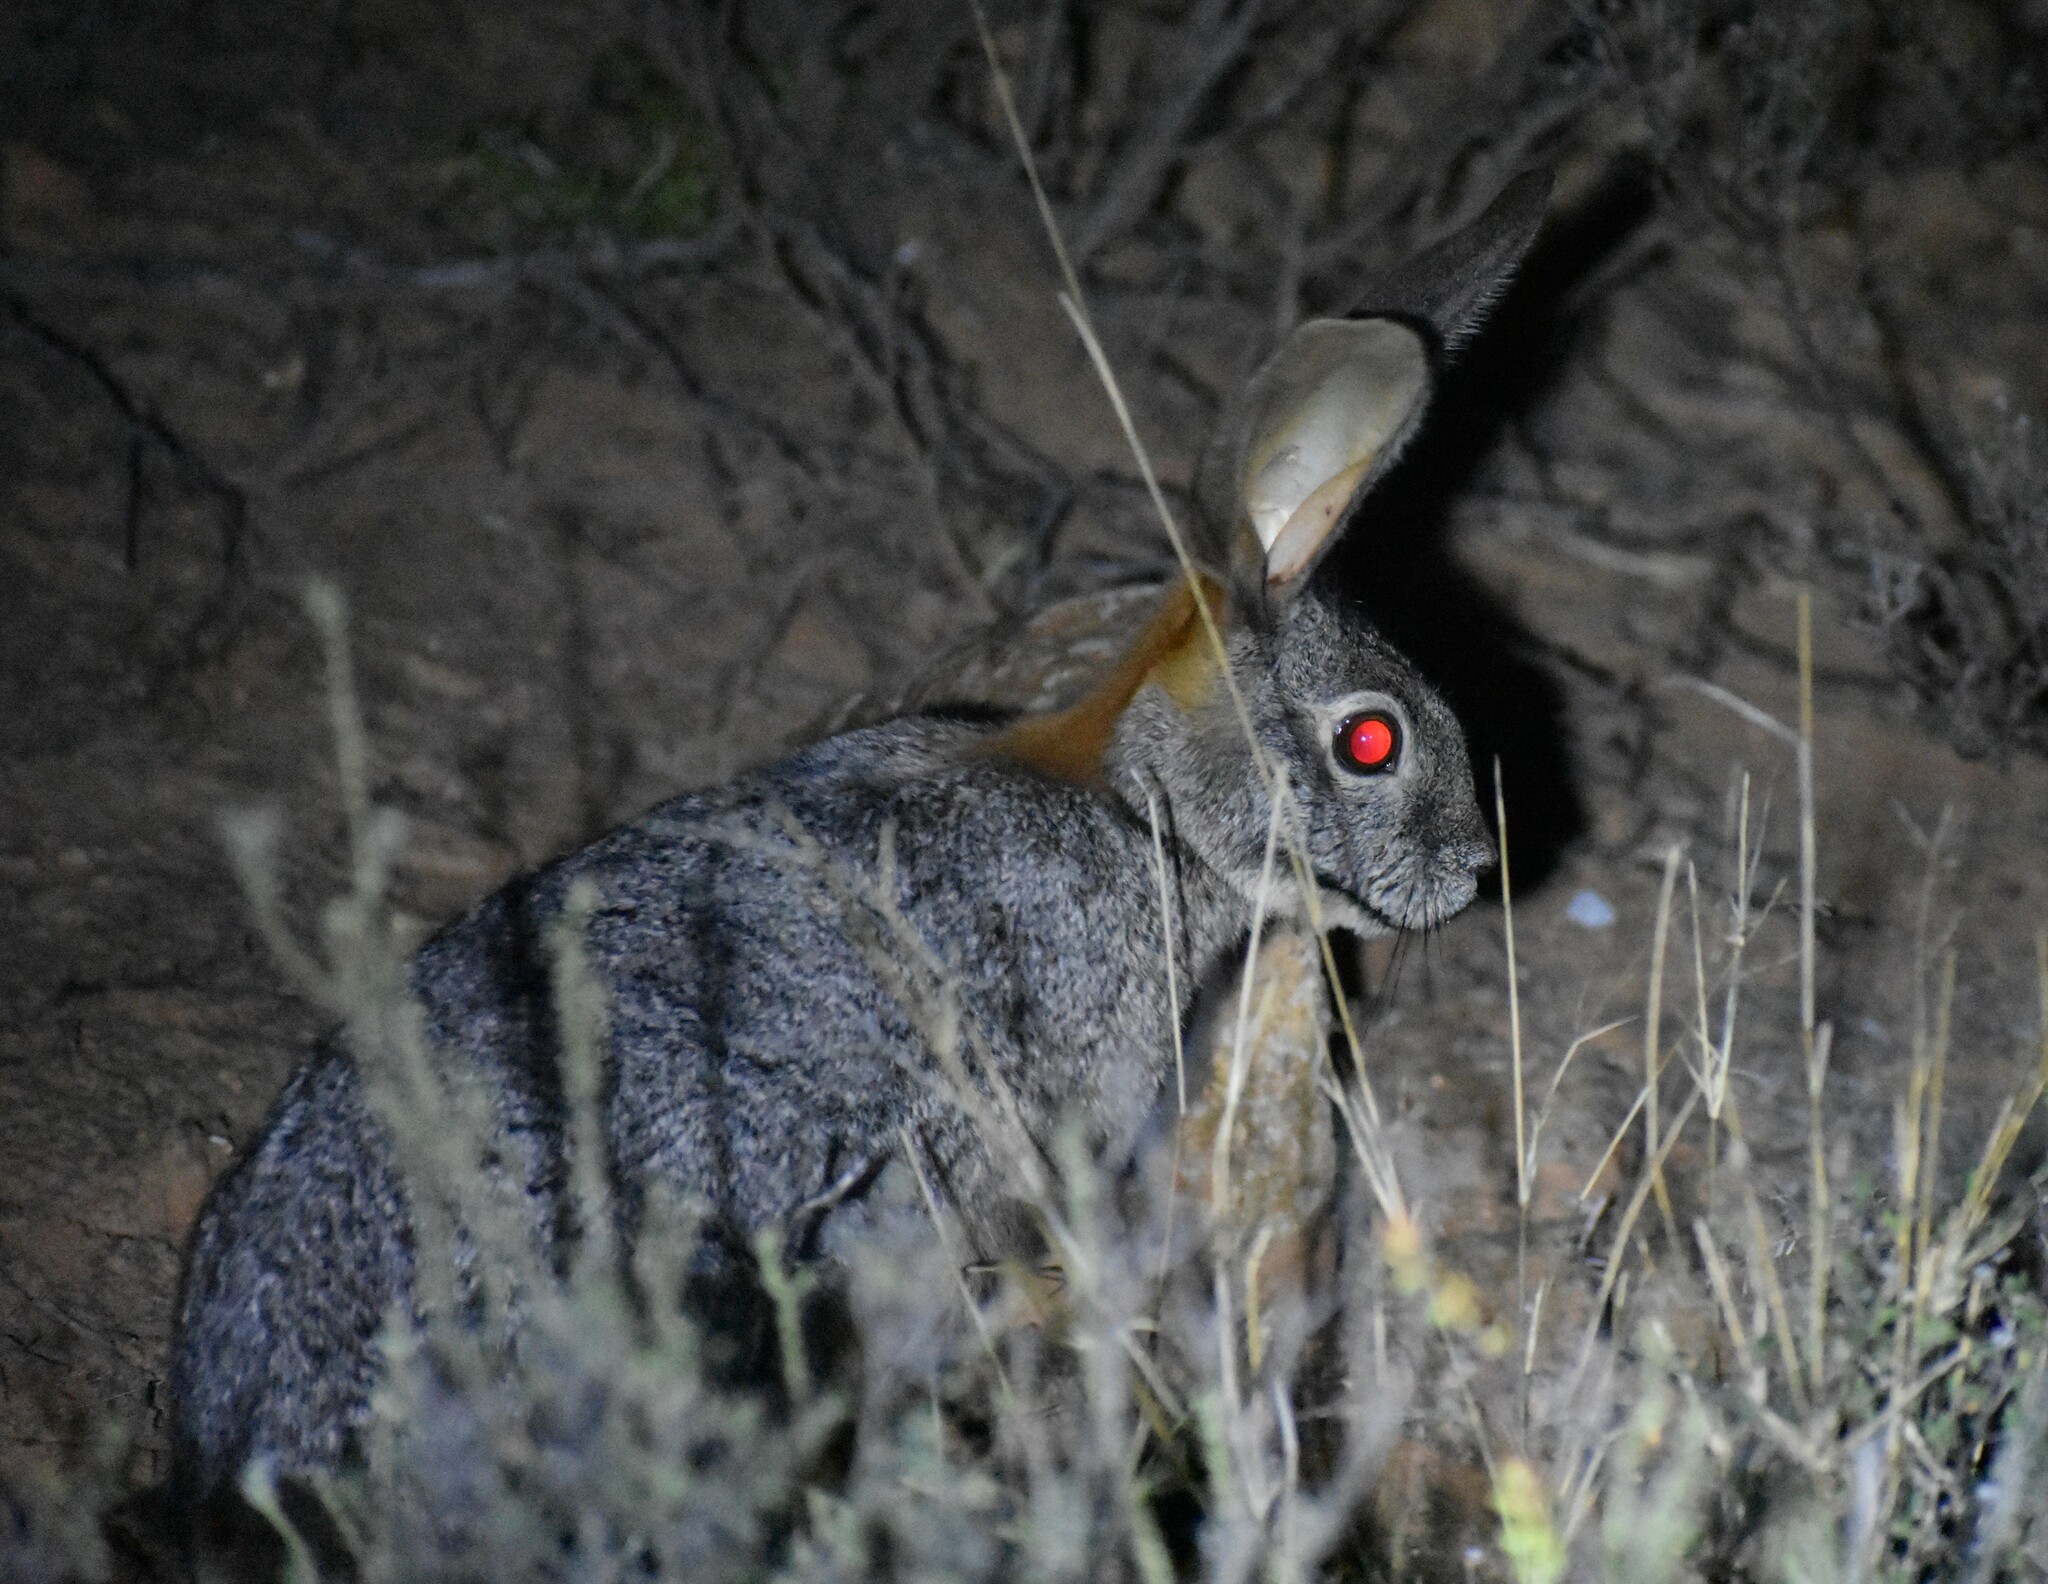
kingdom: Animalia
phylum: Chordata
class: Mammalia
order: Lagomorpha
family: Leporidae
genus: Bunolagus
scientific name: Bunolagus monticularis
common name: Riverine rabbit
